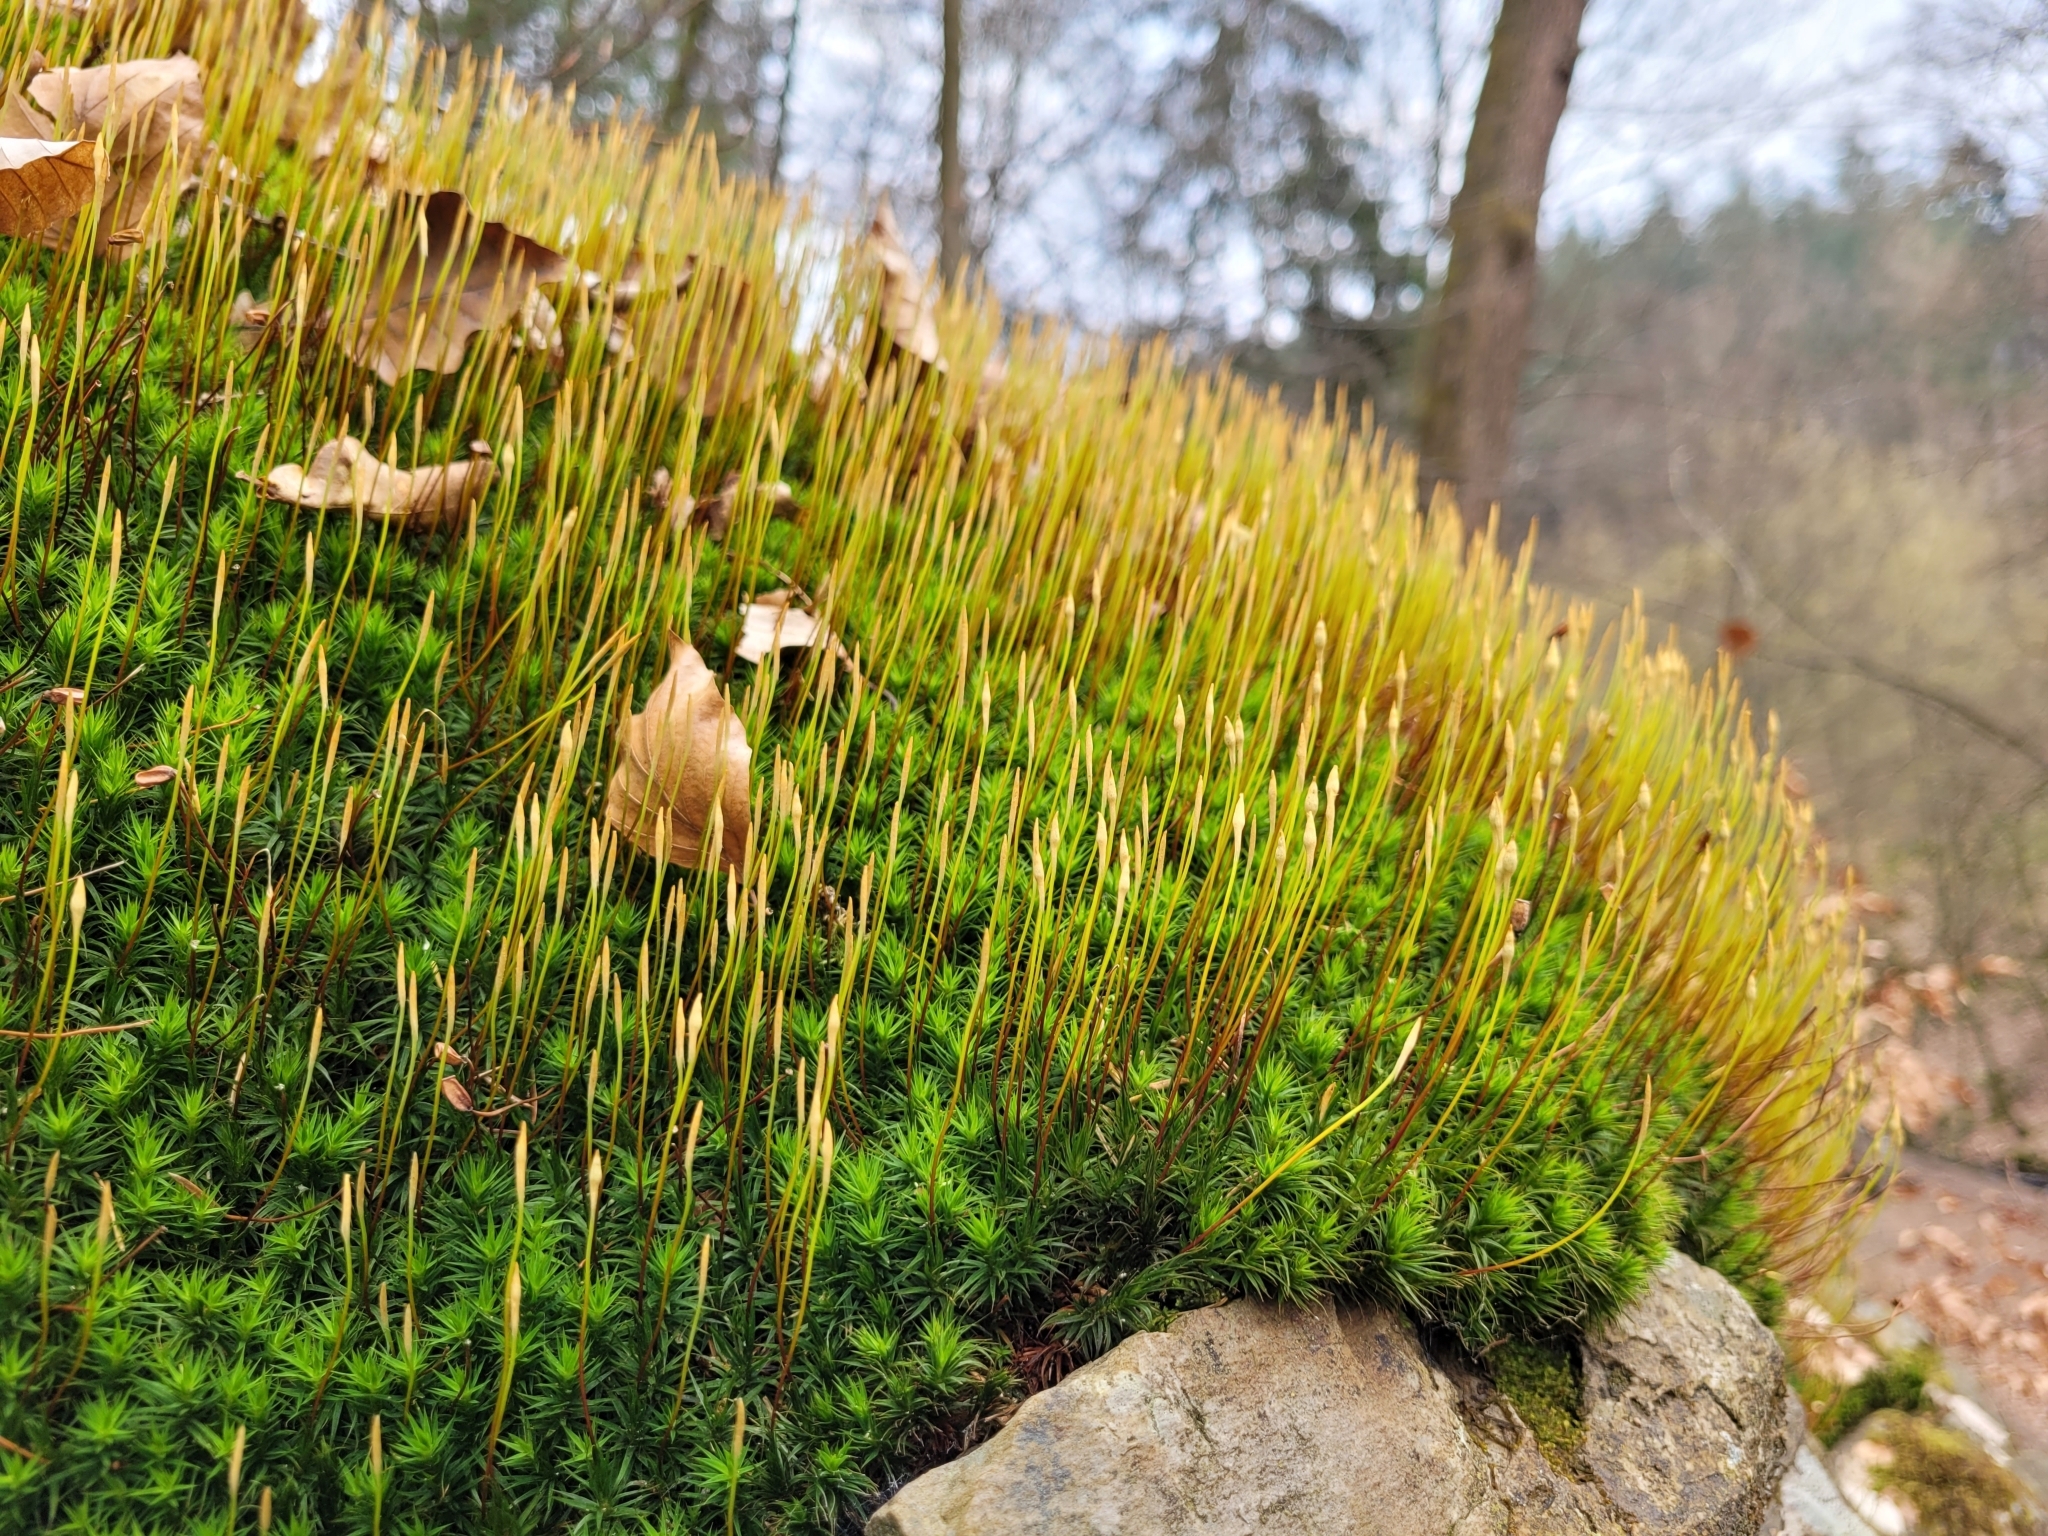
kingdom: Plantae
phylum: Bryophyta
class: Polytrichopsida
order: Polytrichales
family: Polytrichaceae
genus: Polytrichum
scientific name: Polytrichum formosum
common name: Bank haircap moss
